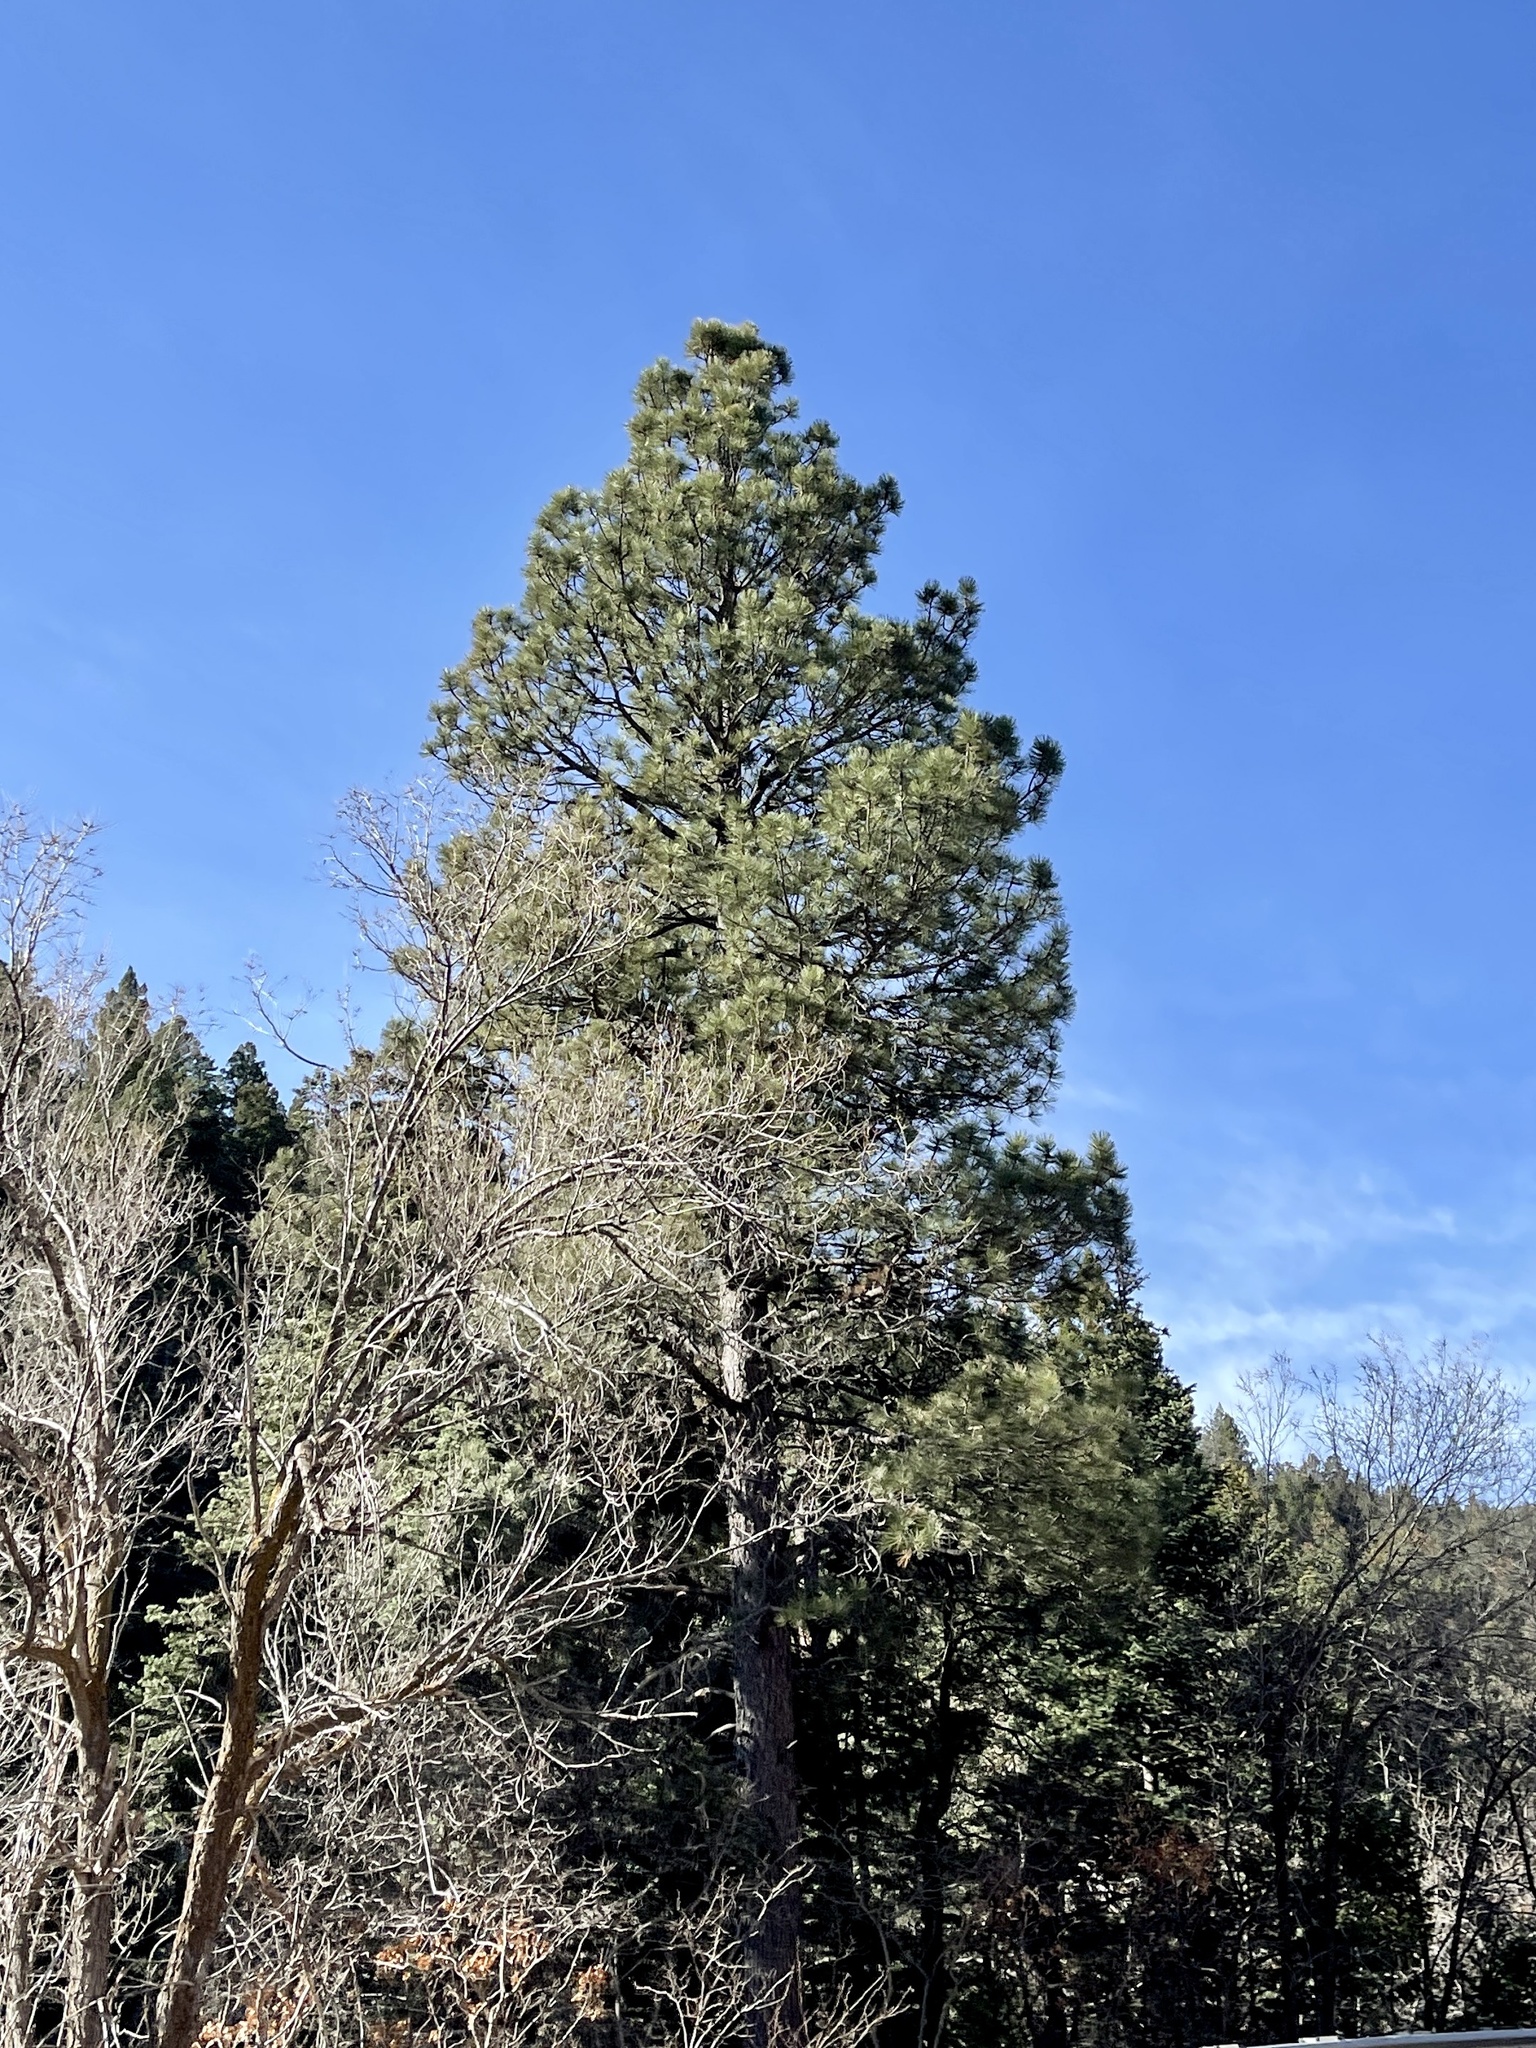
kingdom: Plantae
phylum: Tracheophyta
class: Pinopsida
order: Pinales
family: Pinaceae
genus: Pinus
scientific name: Pinus ponderosa
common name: Western yellow-pine
